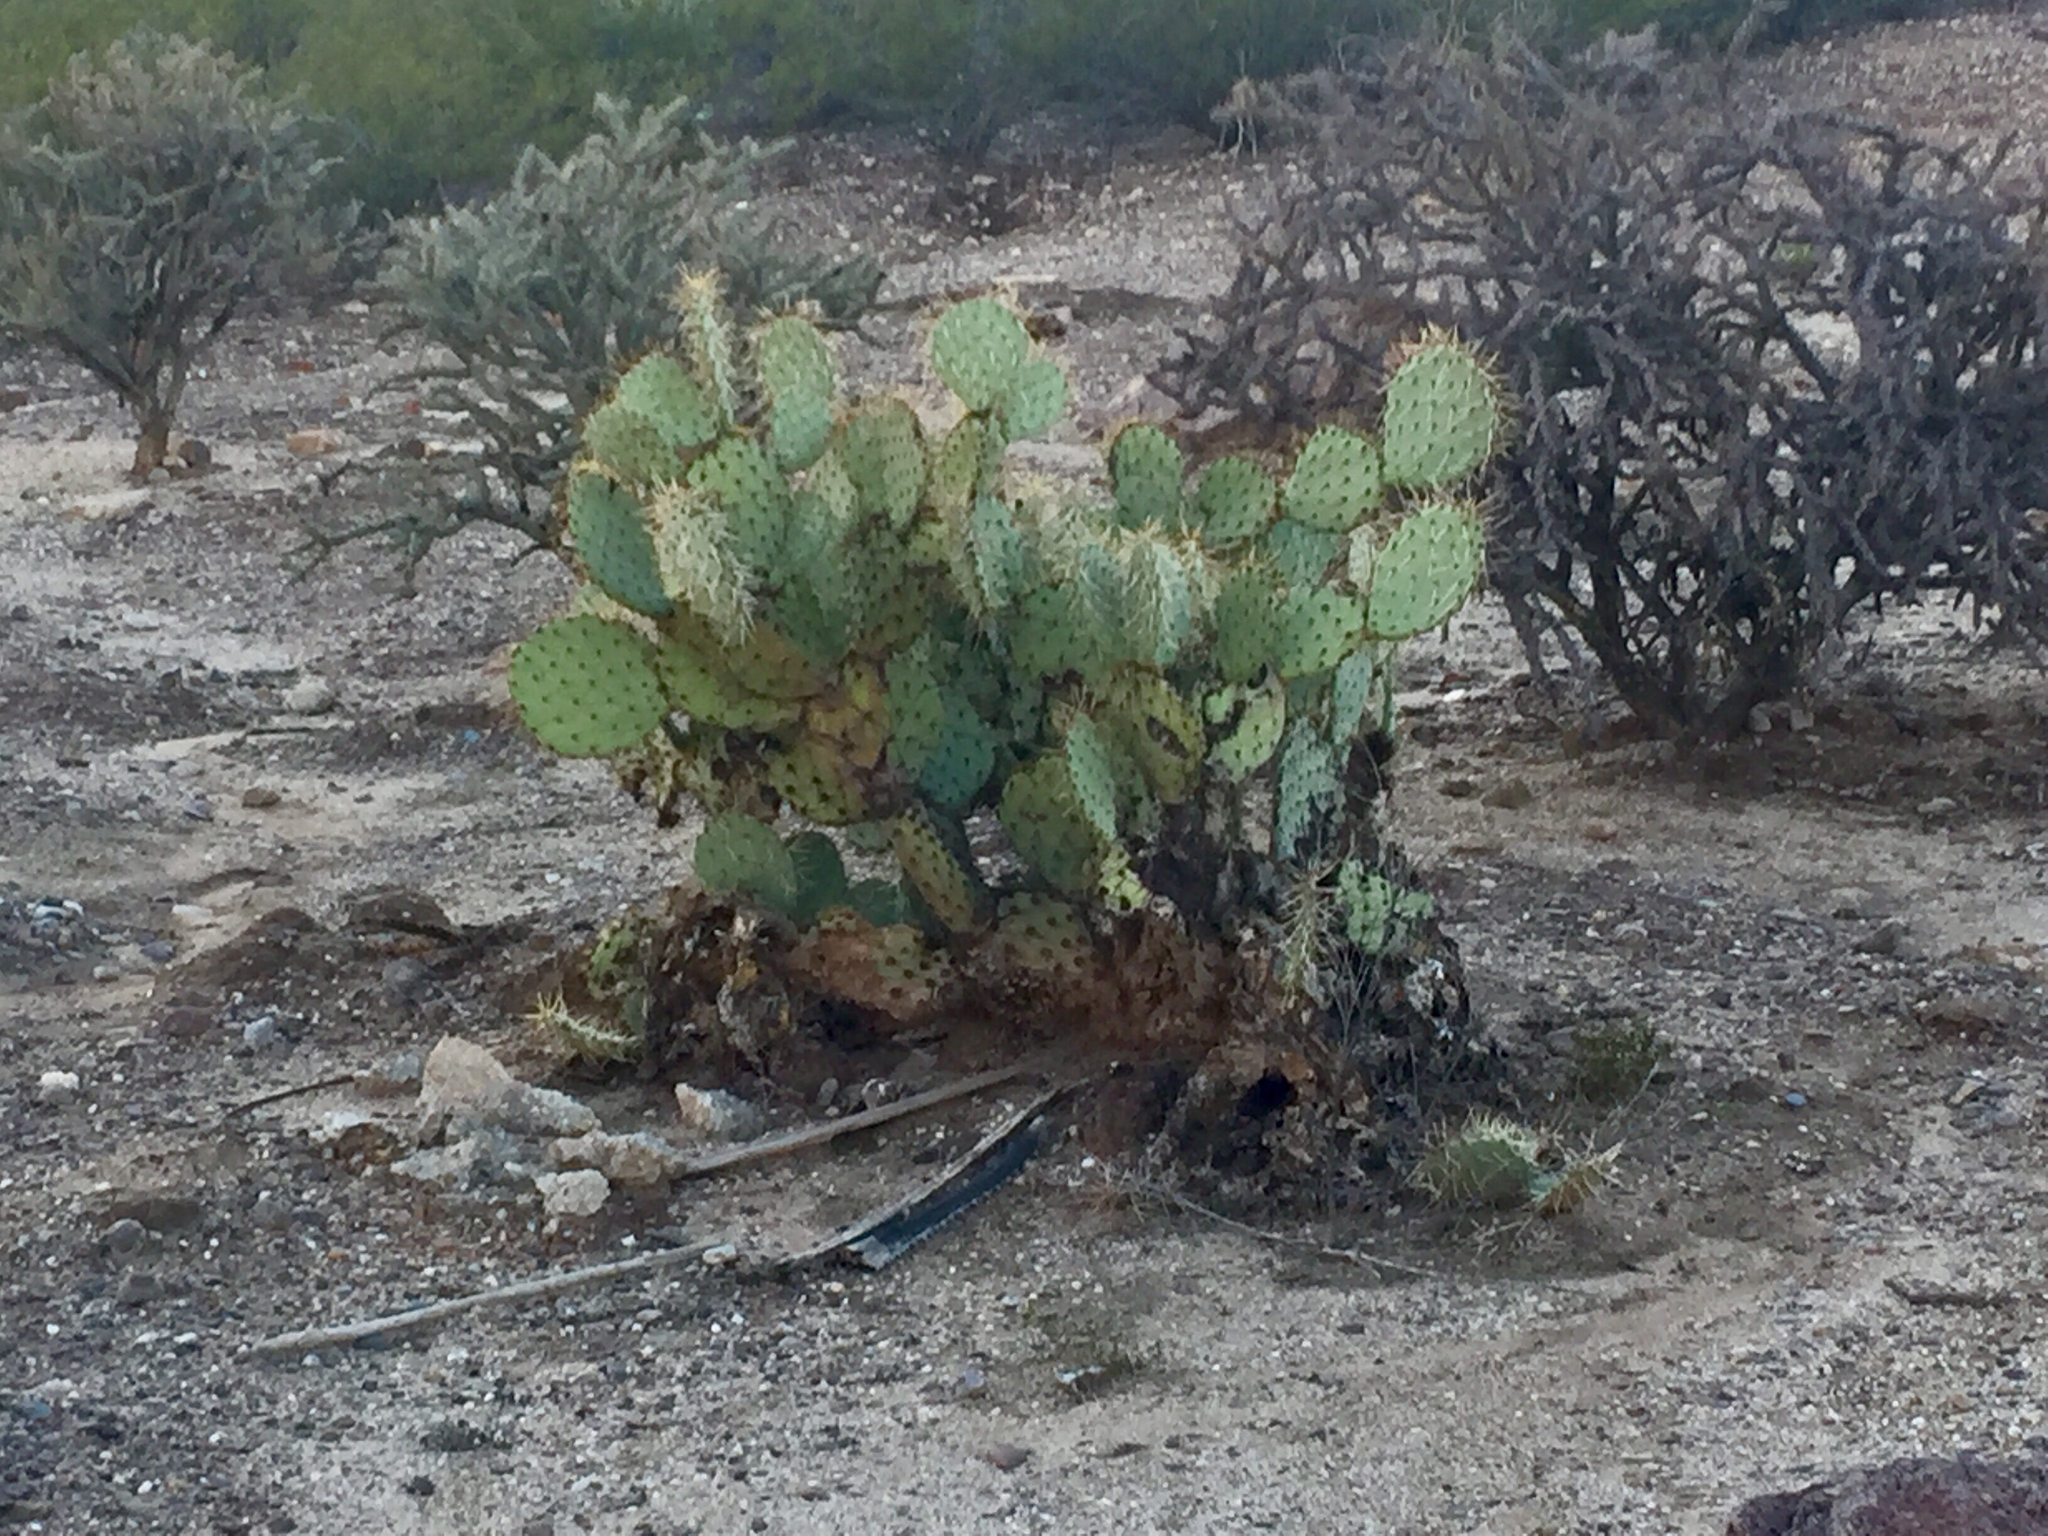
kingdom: Plantae
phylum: Tracheophyta
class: Magnoliopsida
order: Caryophyllales
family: Cactaceae
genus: Opuntia
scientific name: Opuntia engelmannii
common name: Cactus-apple
